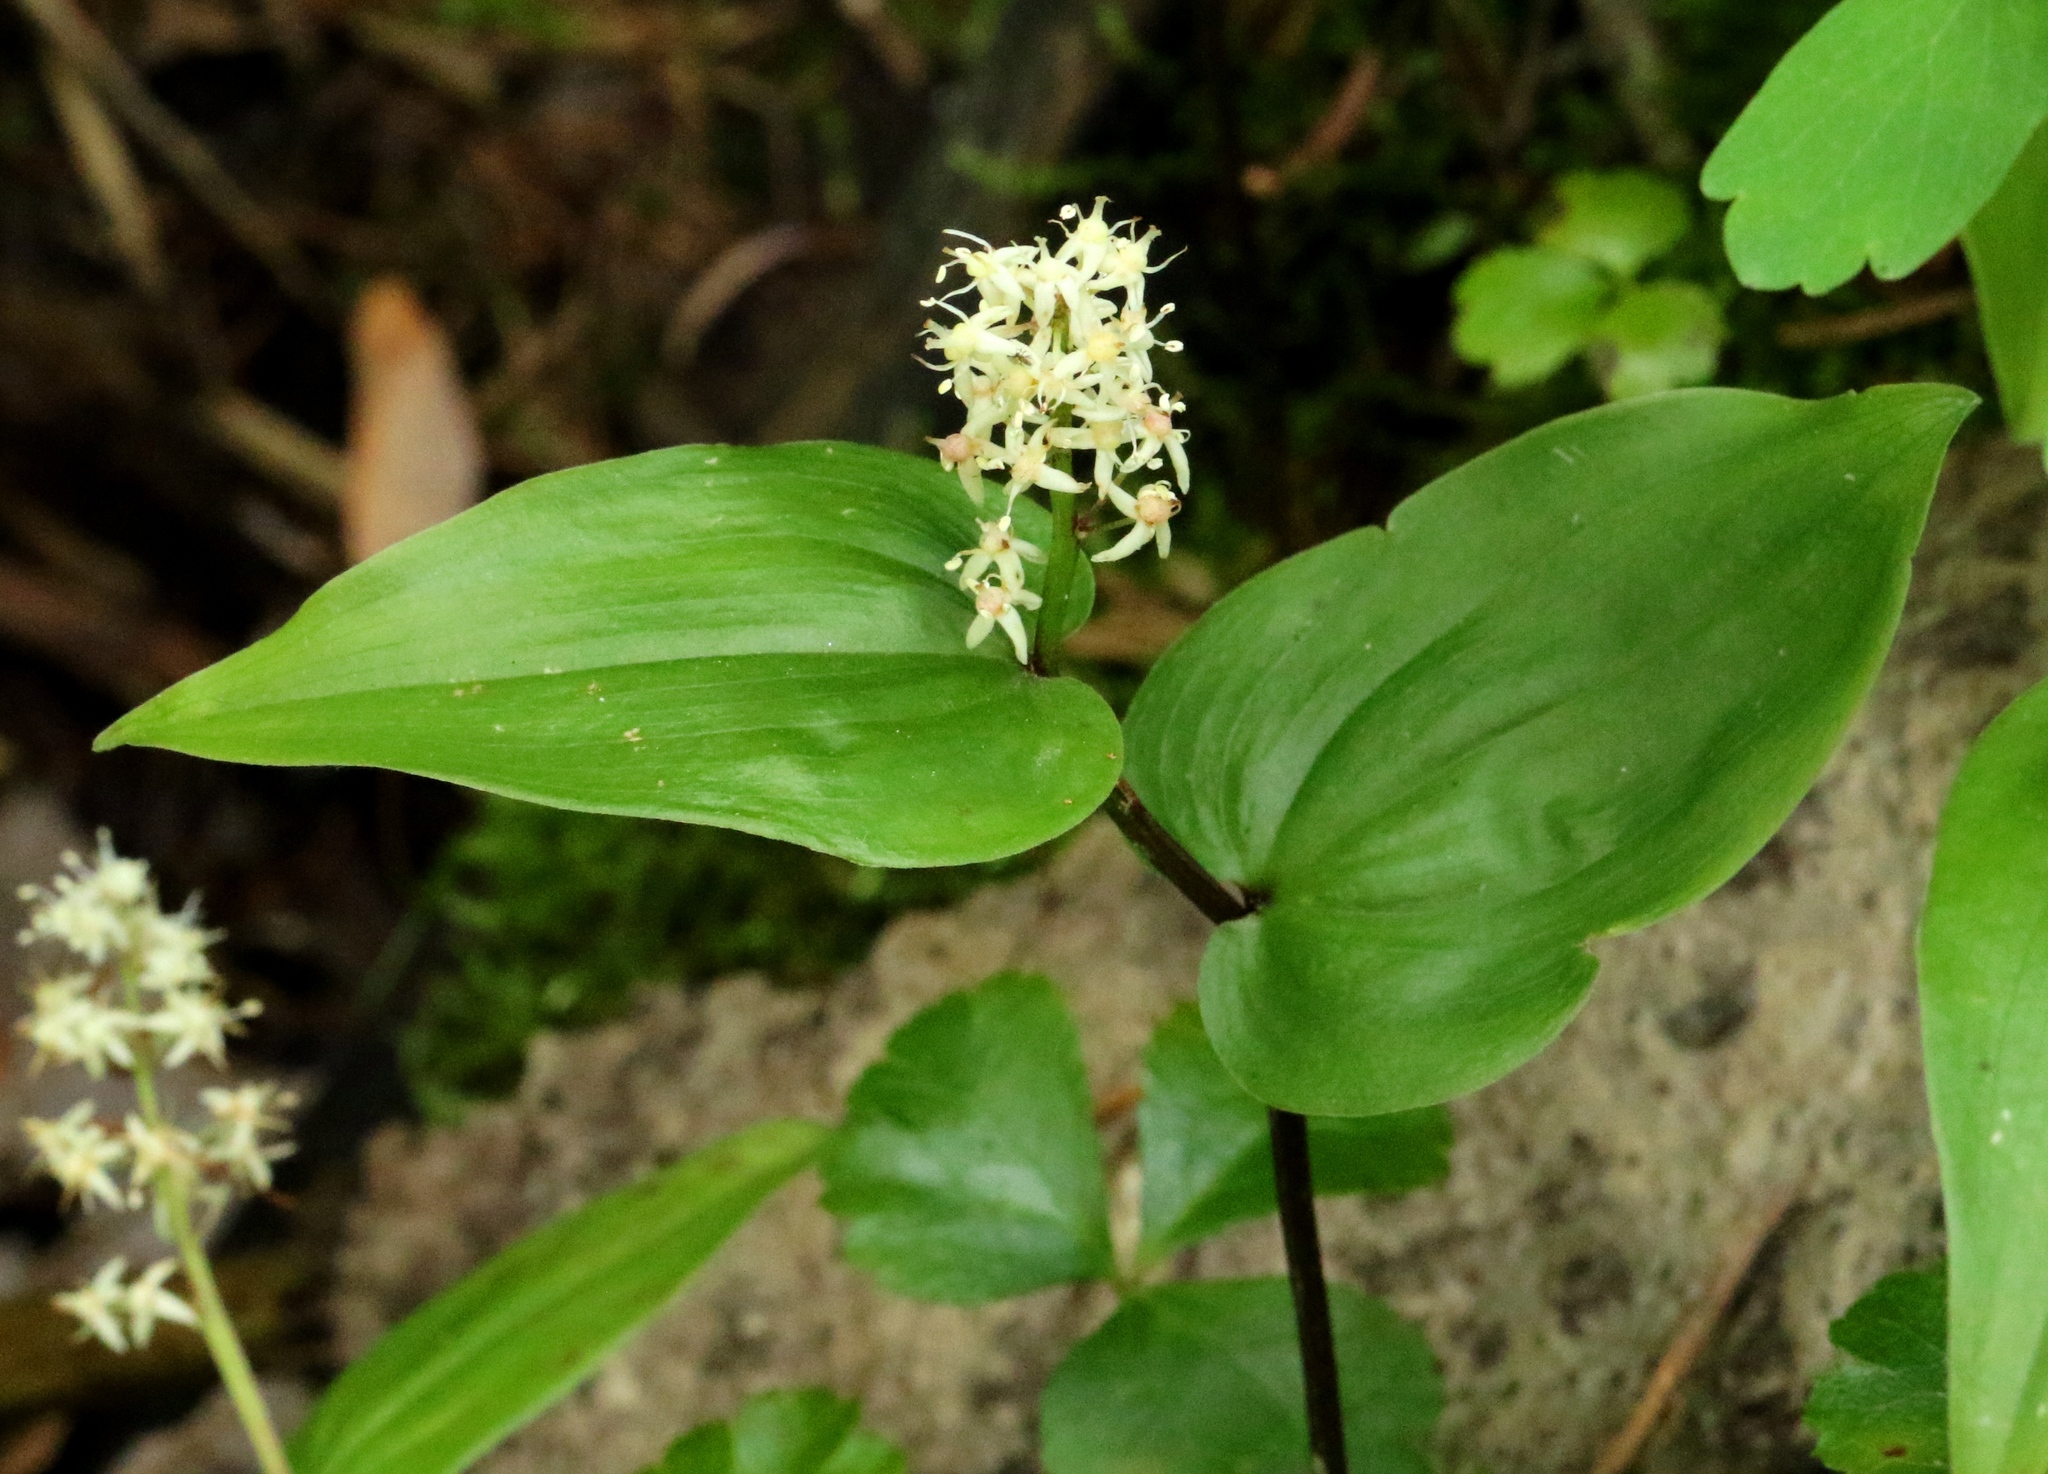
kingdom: Plantae
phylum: Tracheophyta
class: Liliopsida
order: Asparagales
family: Asparagaceae
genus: Maianthemum
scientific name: Maianthemum canadense
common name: False lily-of-the-valley
